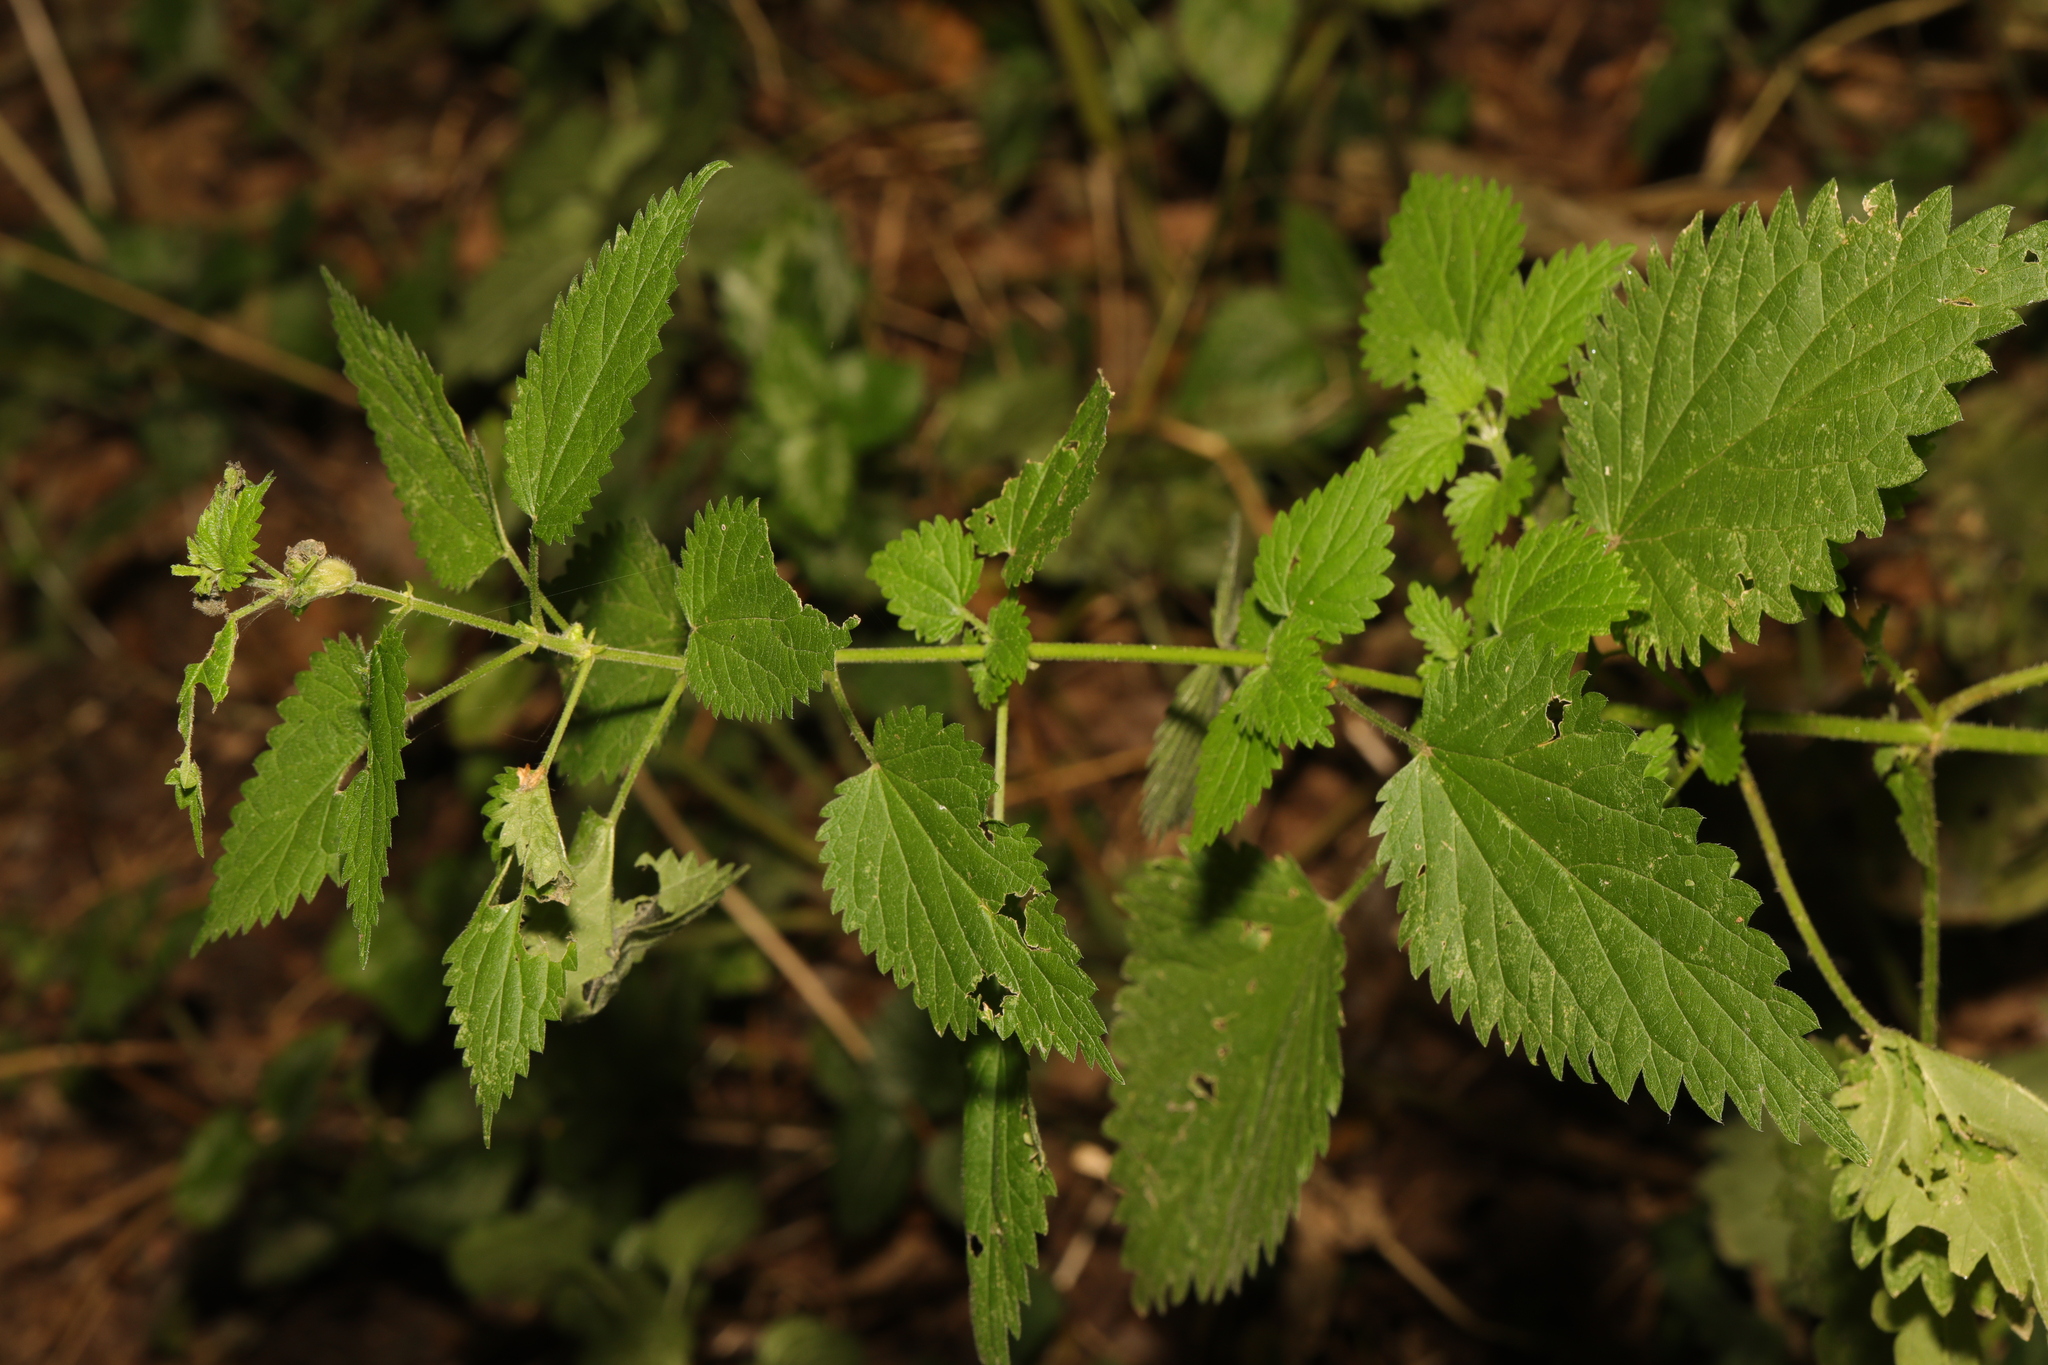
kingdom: Plantae
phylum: Tracheophyta
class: Magnoliopsida
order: Rosales
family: Urticaceae
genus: Urtica
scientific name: Urtica dioica
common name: Common nettle
